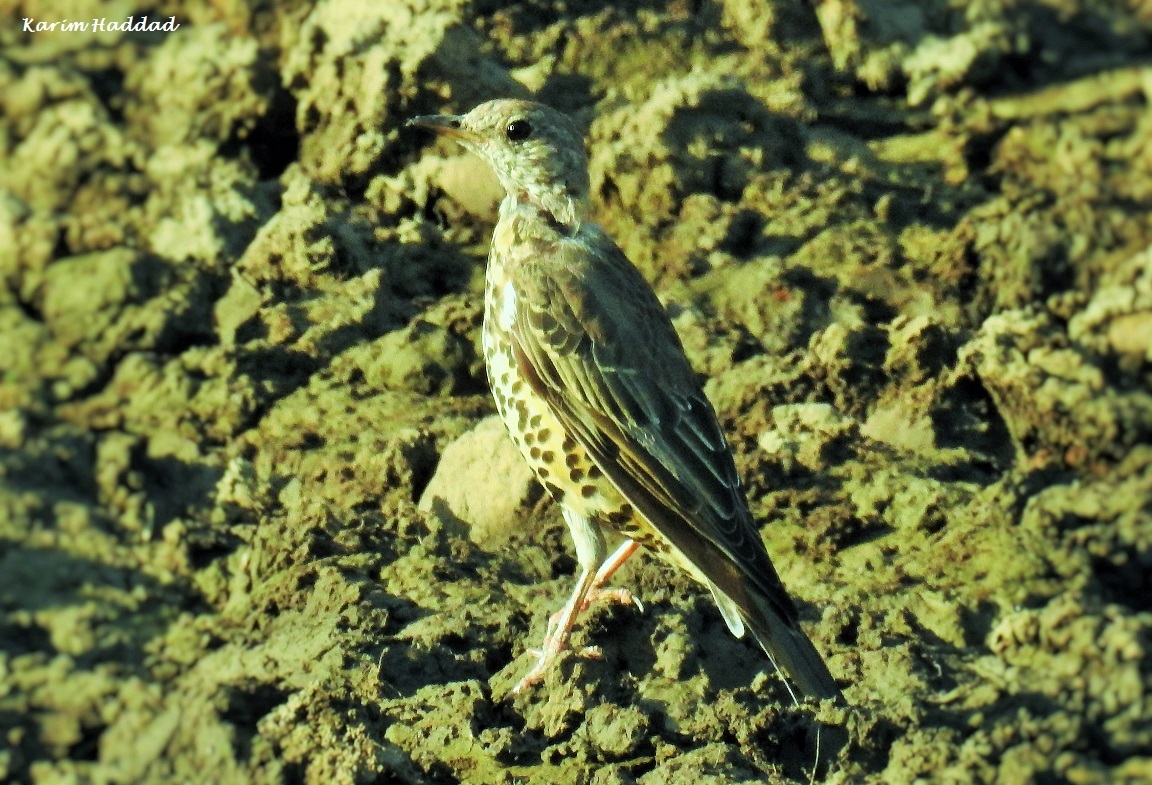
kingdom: Animalia
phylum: Chordata
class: Aves
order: Passeriformes
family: Turdidae
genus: Turdus
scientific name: Turdus viscivorus
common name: Mistle thrush
